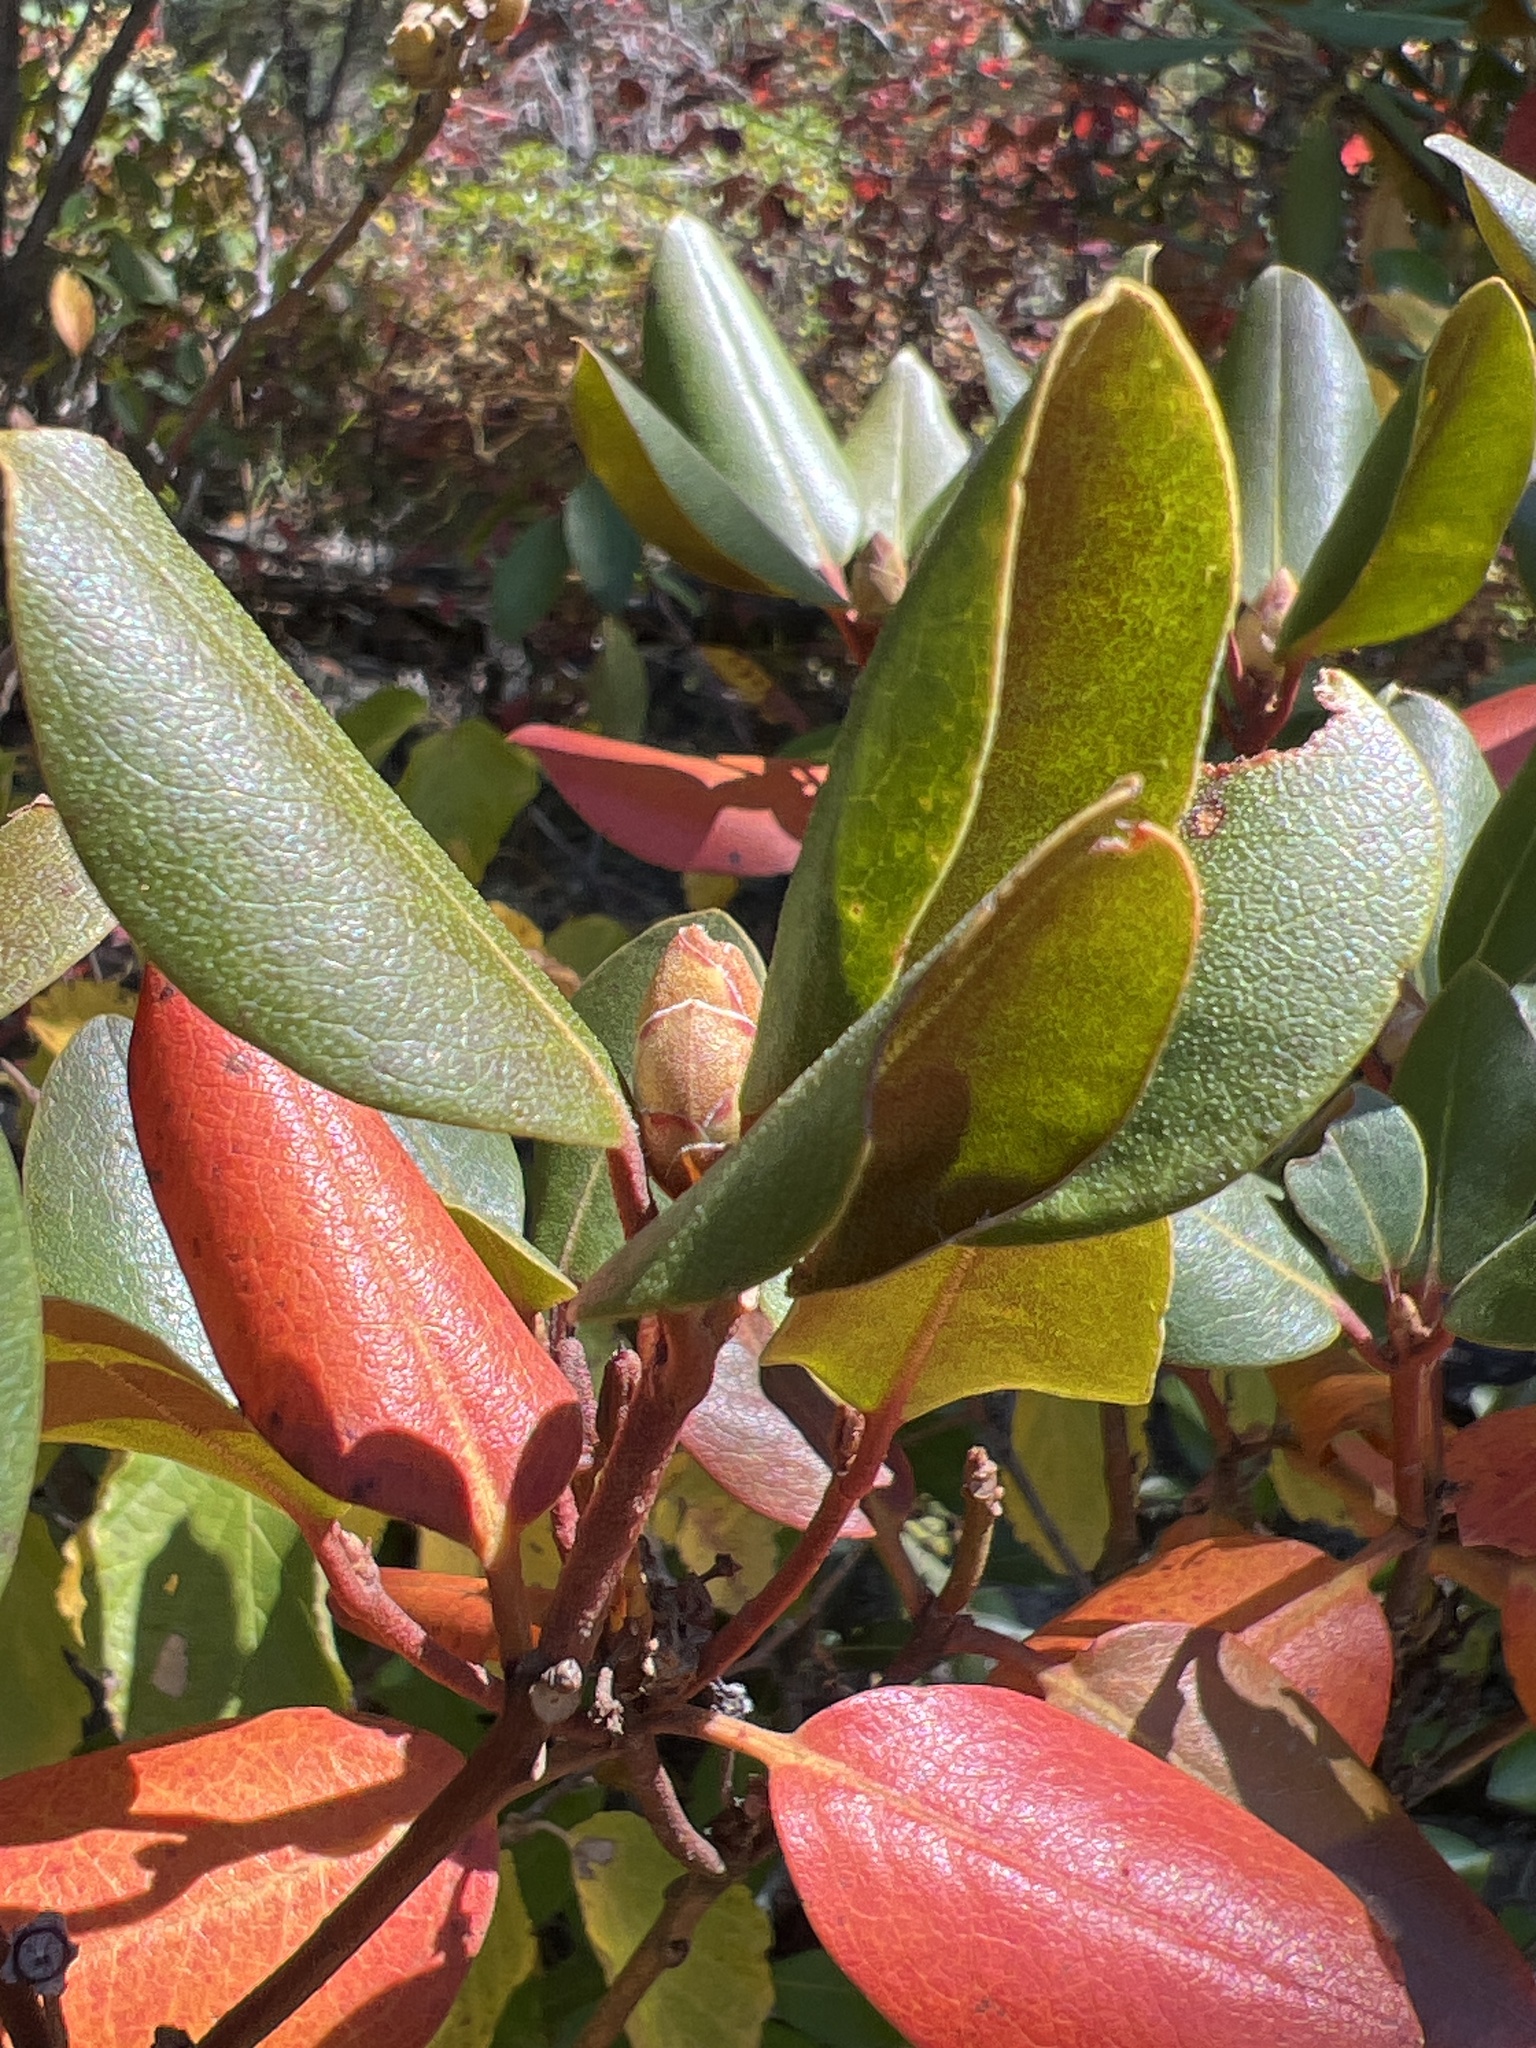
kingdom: Plantae
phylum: Tracheophyta
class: Magnoliopsida
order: Ericales
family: Ericaceae
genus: Rhododendron
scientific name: Rhododendron minus
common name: Piedmont rhododendron
